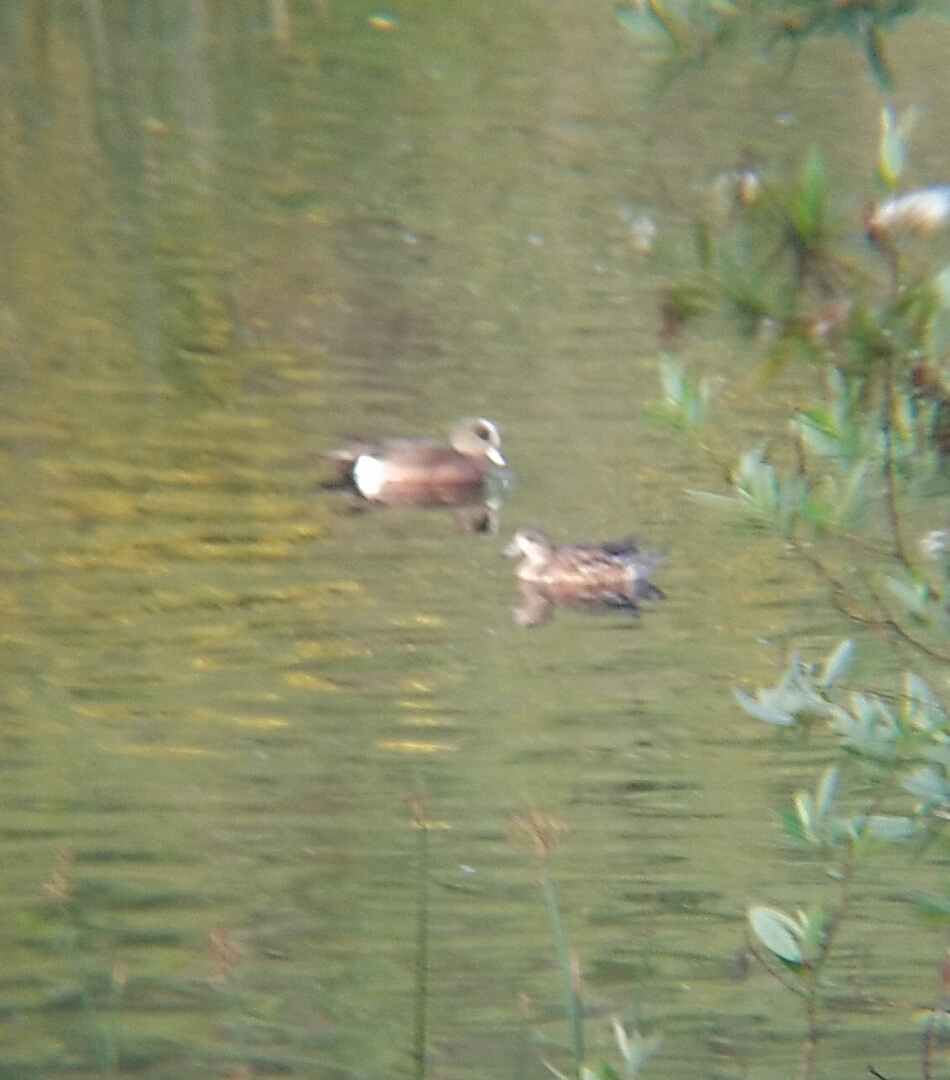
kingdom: Animalia
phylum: Chordata
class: Aves
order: Anseriformes
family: Anatidae
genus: Mareca
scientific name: Mareca americana
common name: American wigeon
